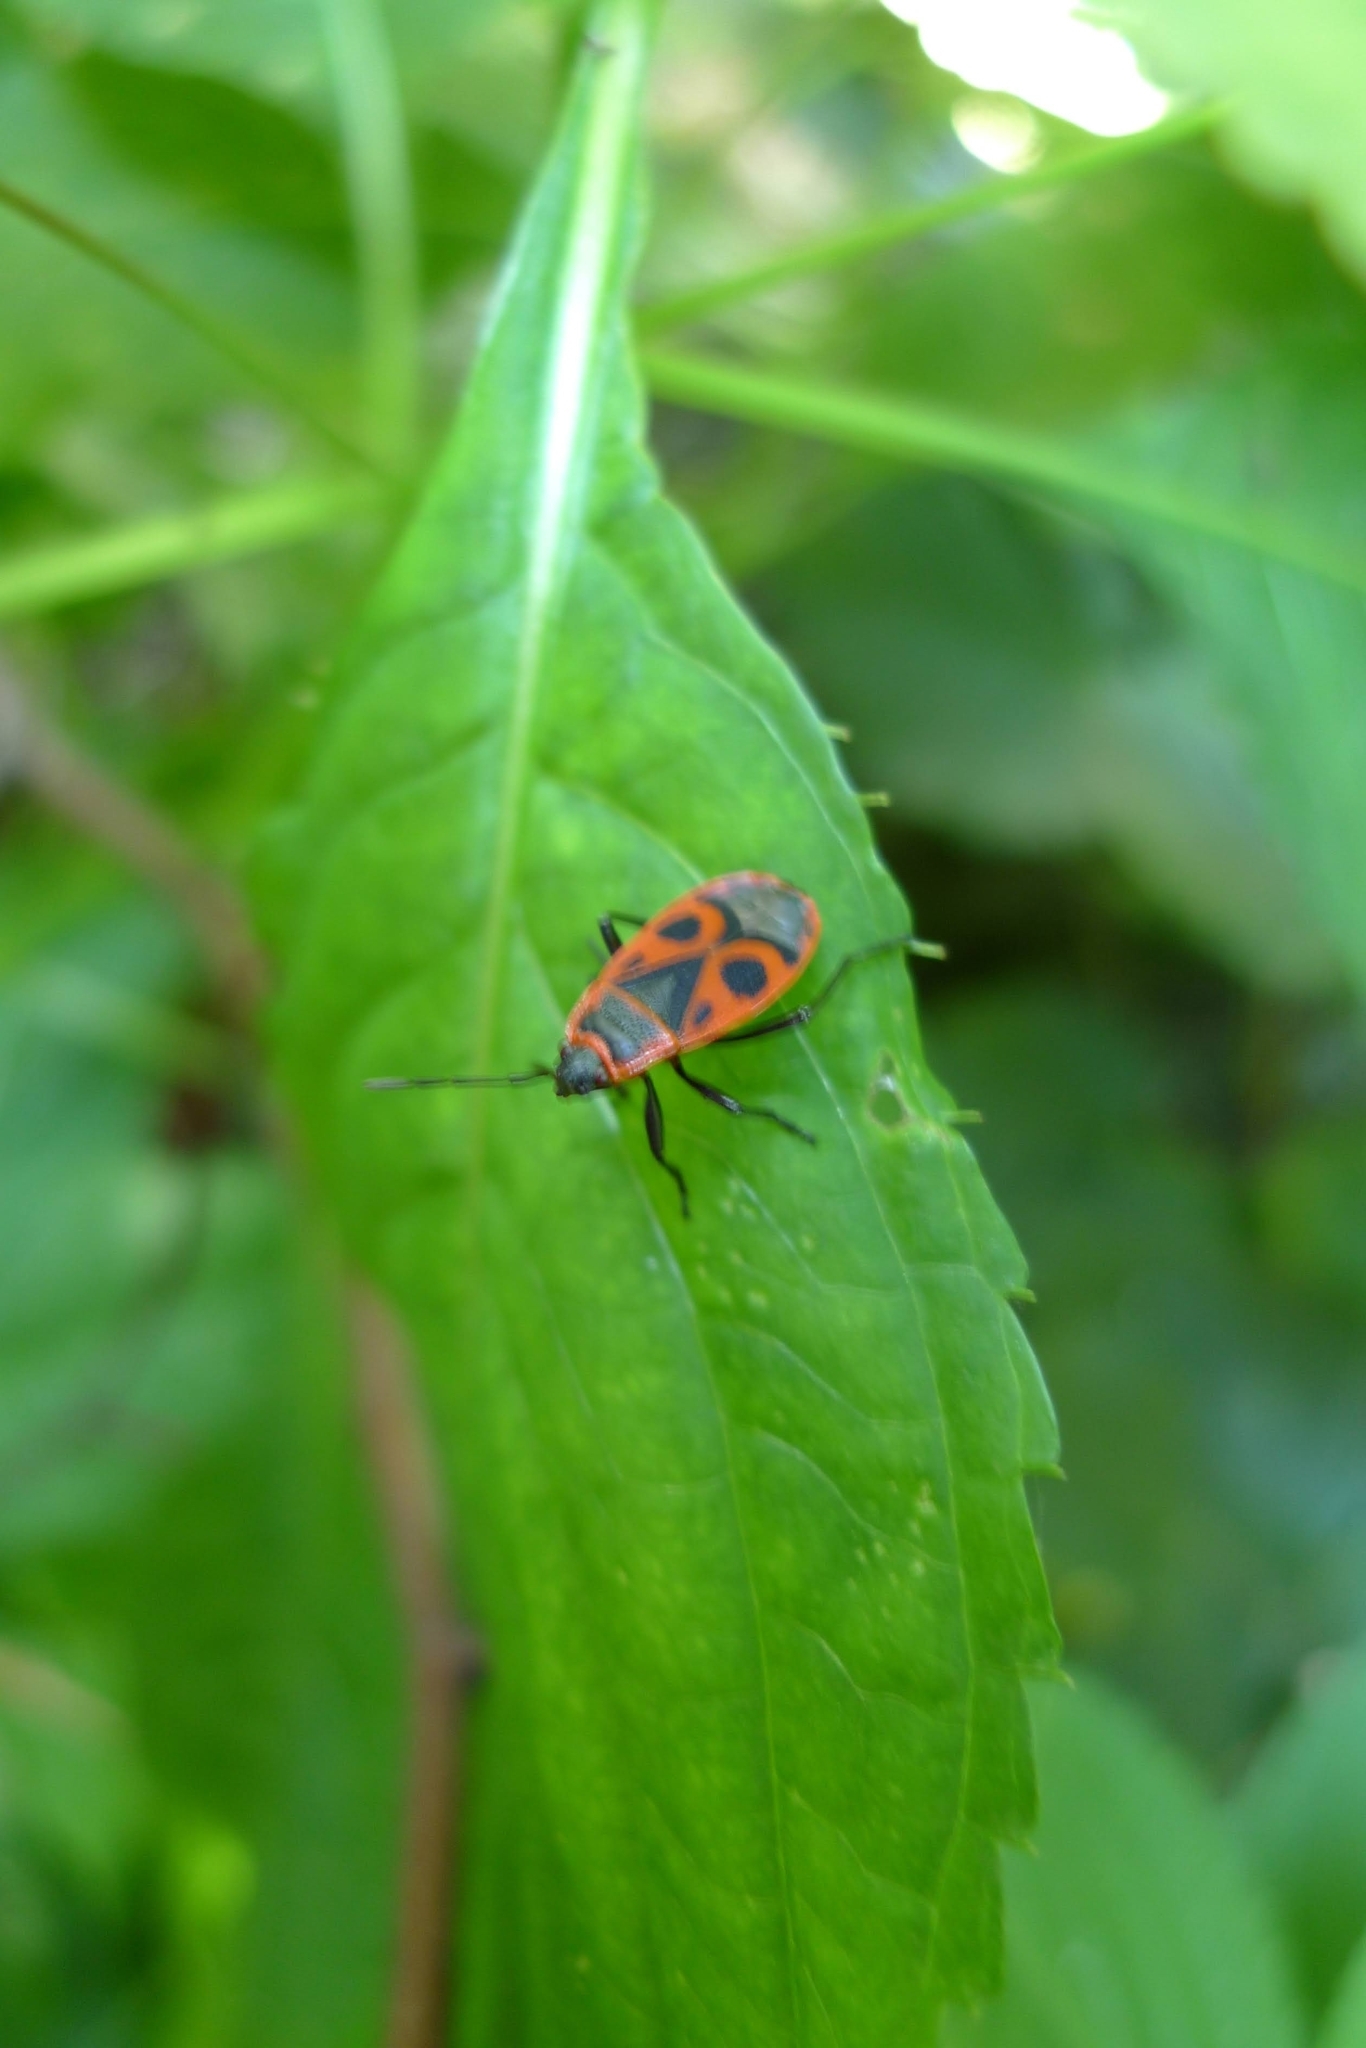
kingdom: Animalia
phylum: Arthropoda
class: Insecta
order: Hemiptera
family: Pyrrhocoridae
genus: Pyrrhocoris
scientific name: Pyrrhocoris apterus
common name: Firebug
